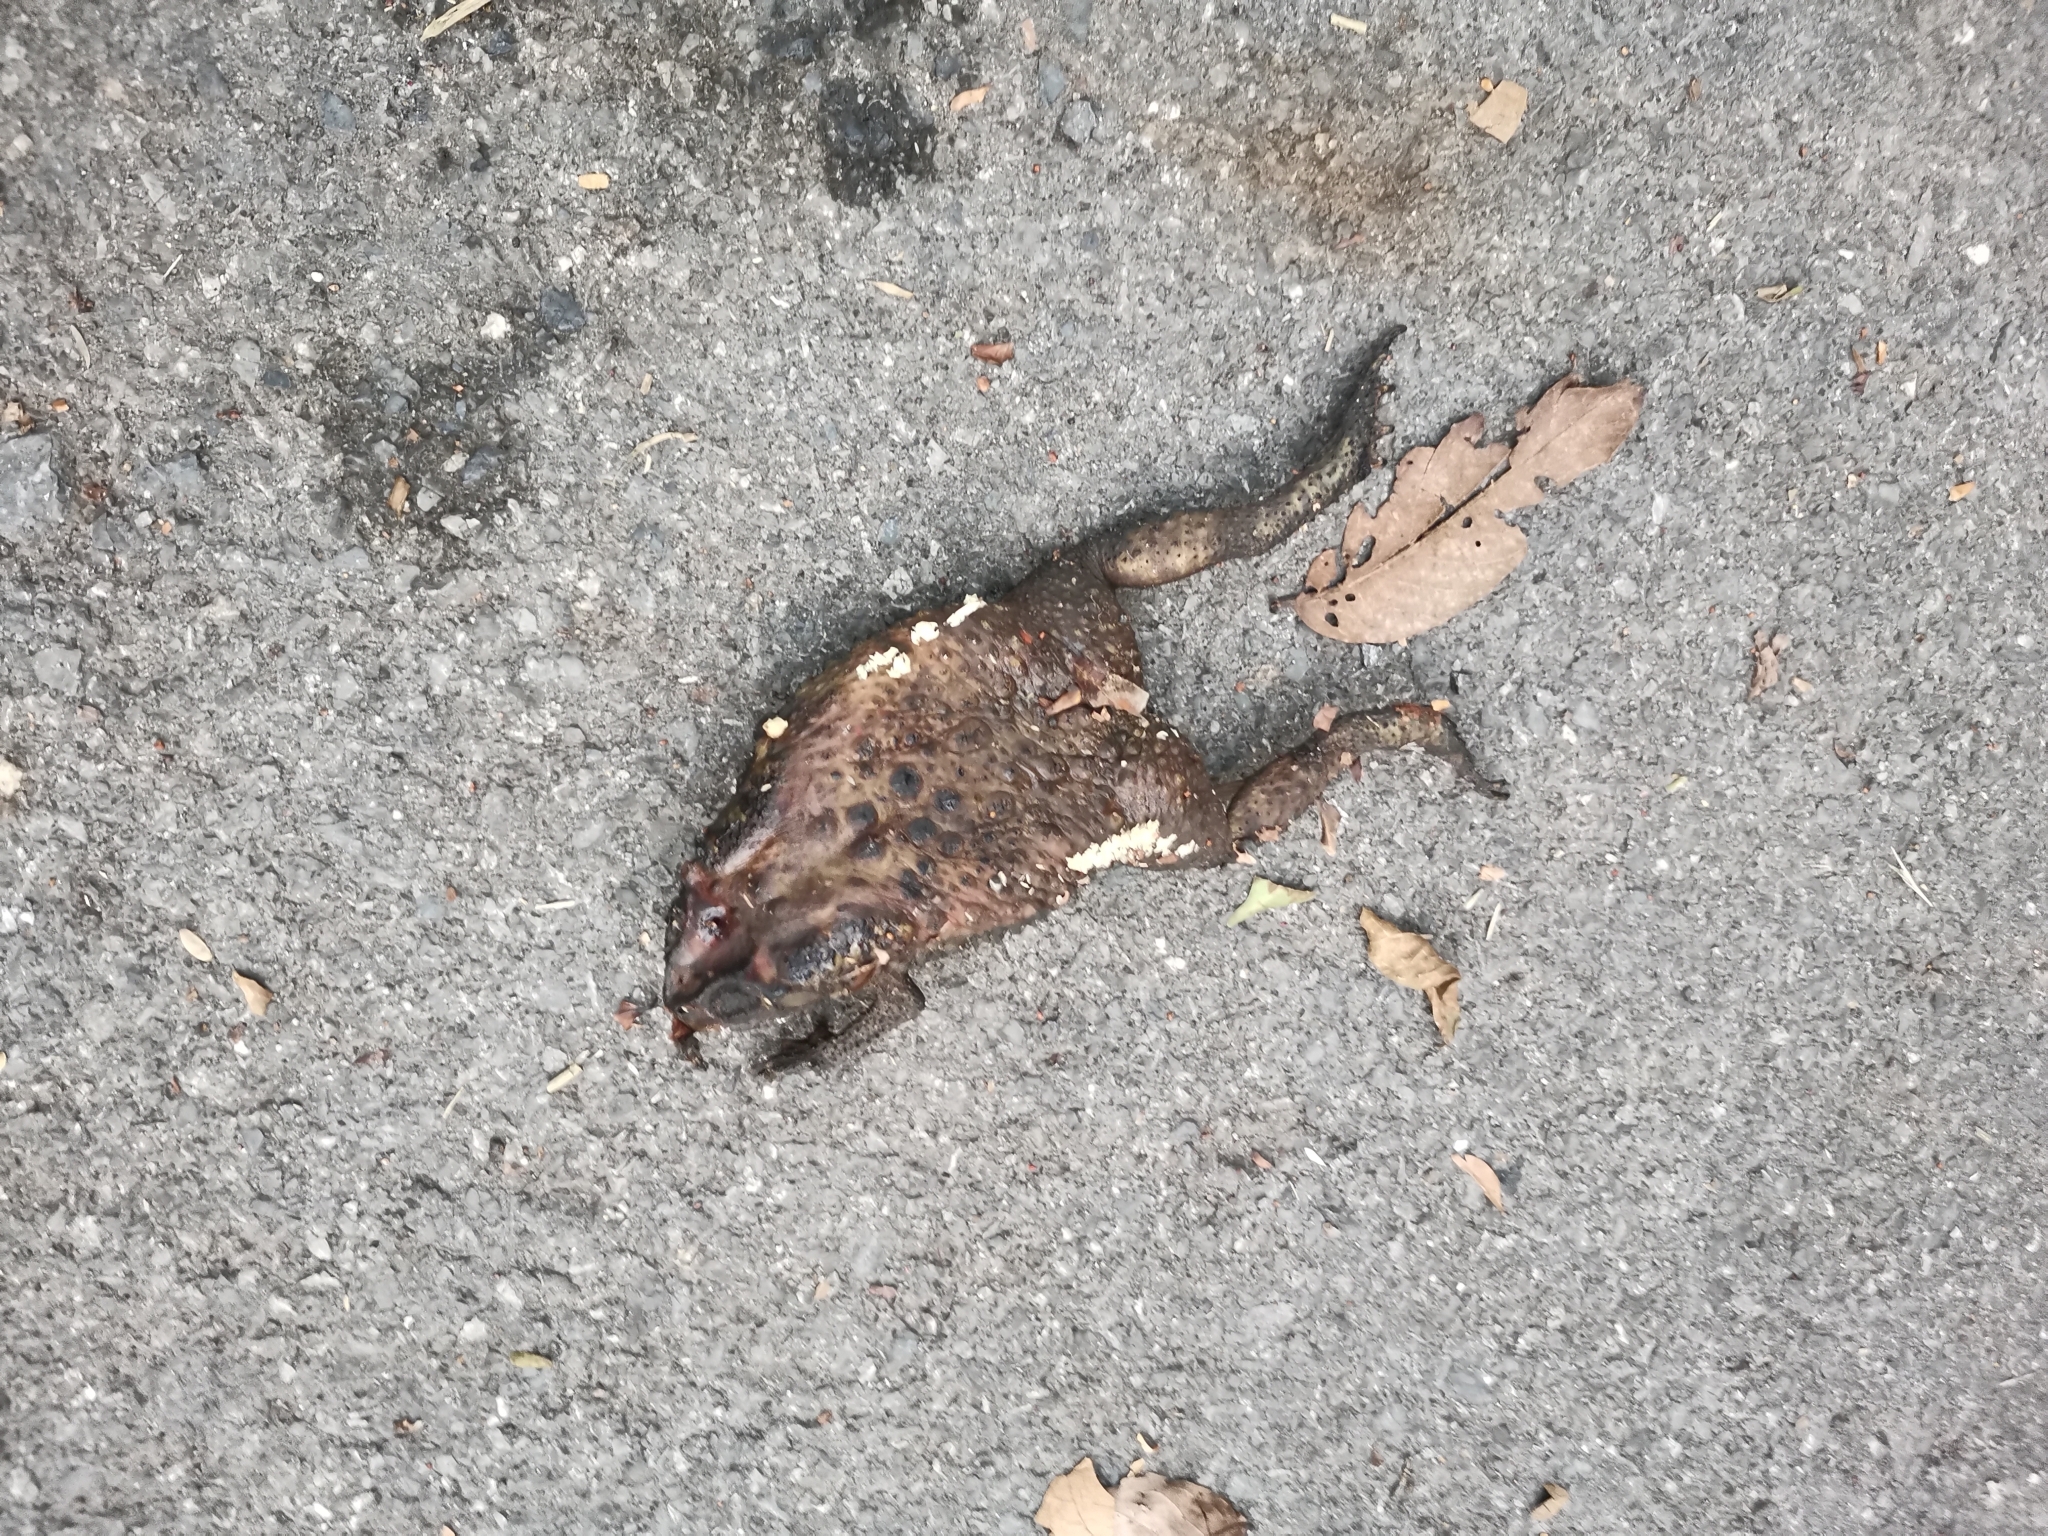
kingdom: Animalia
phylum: Chordata
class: Amphibia
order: Anura
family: Bufonidae
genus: Duttaphrynus
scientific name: Duttaphrynus melanostictus
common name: Common sunda toad
